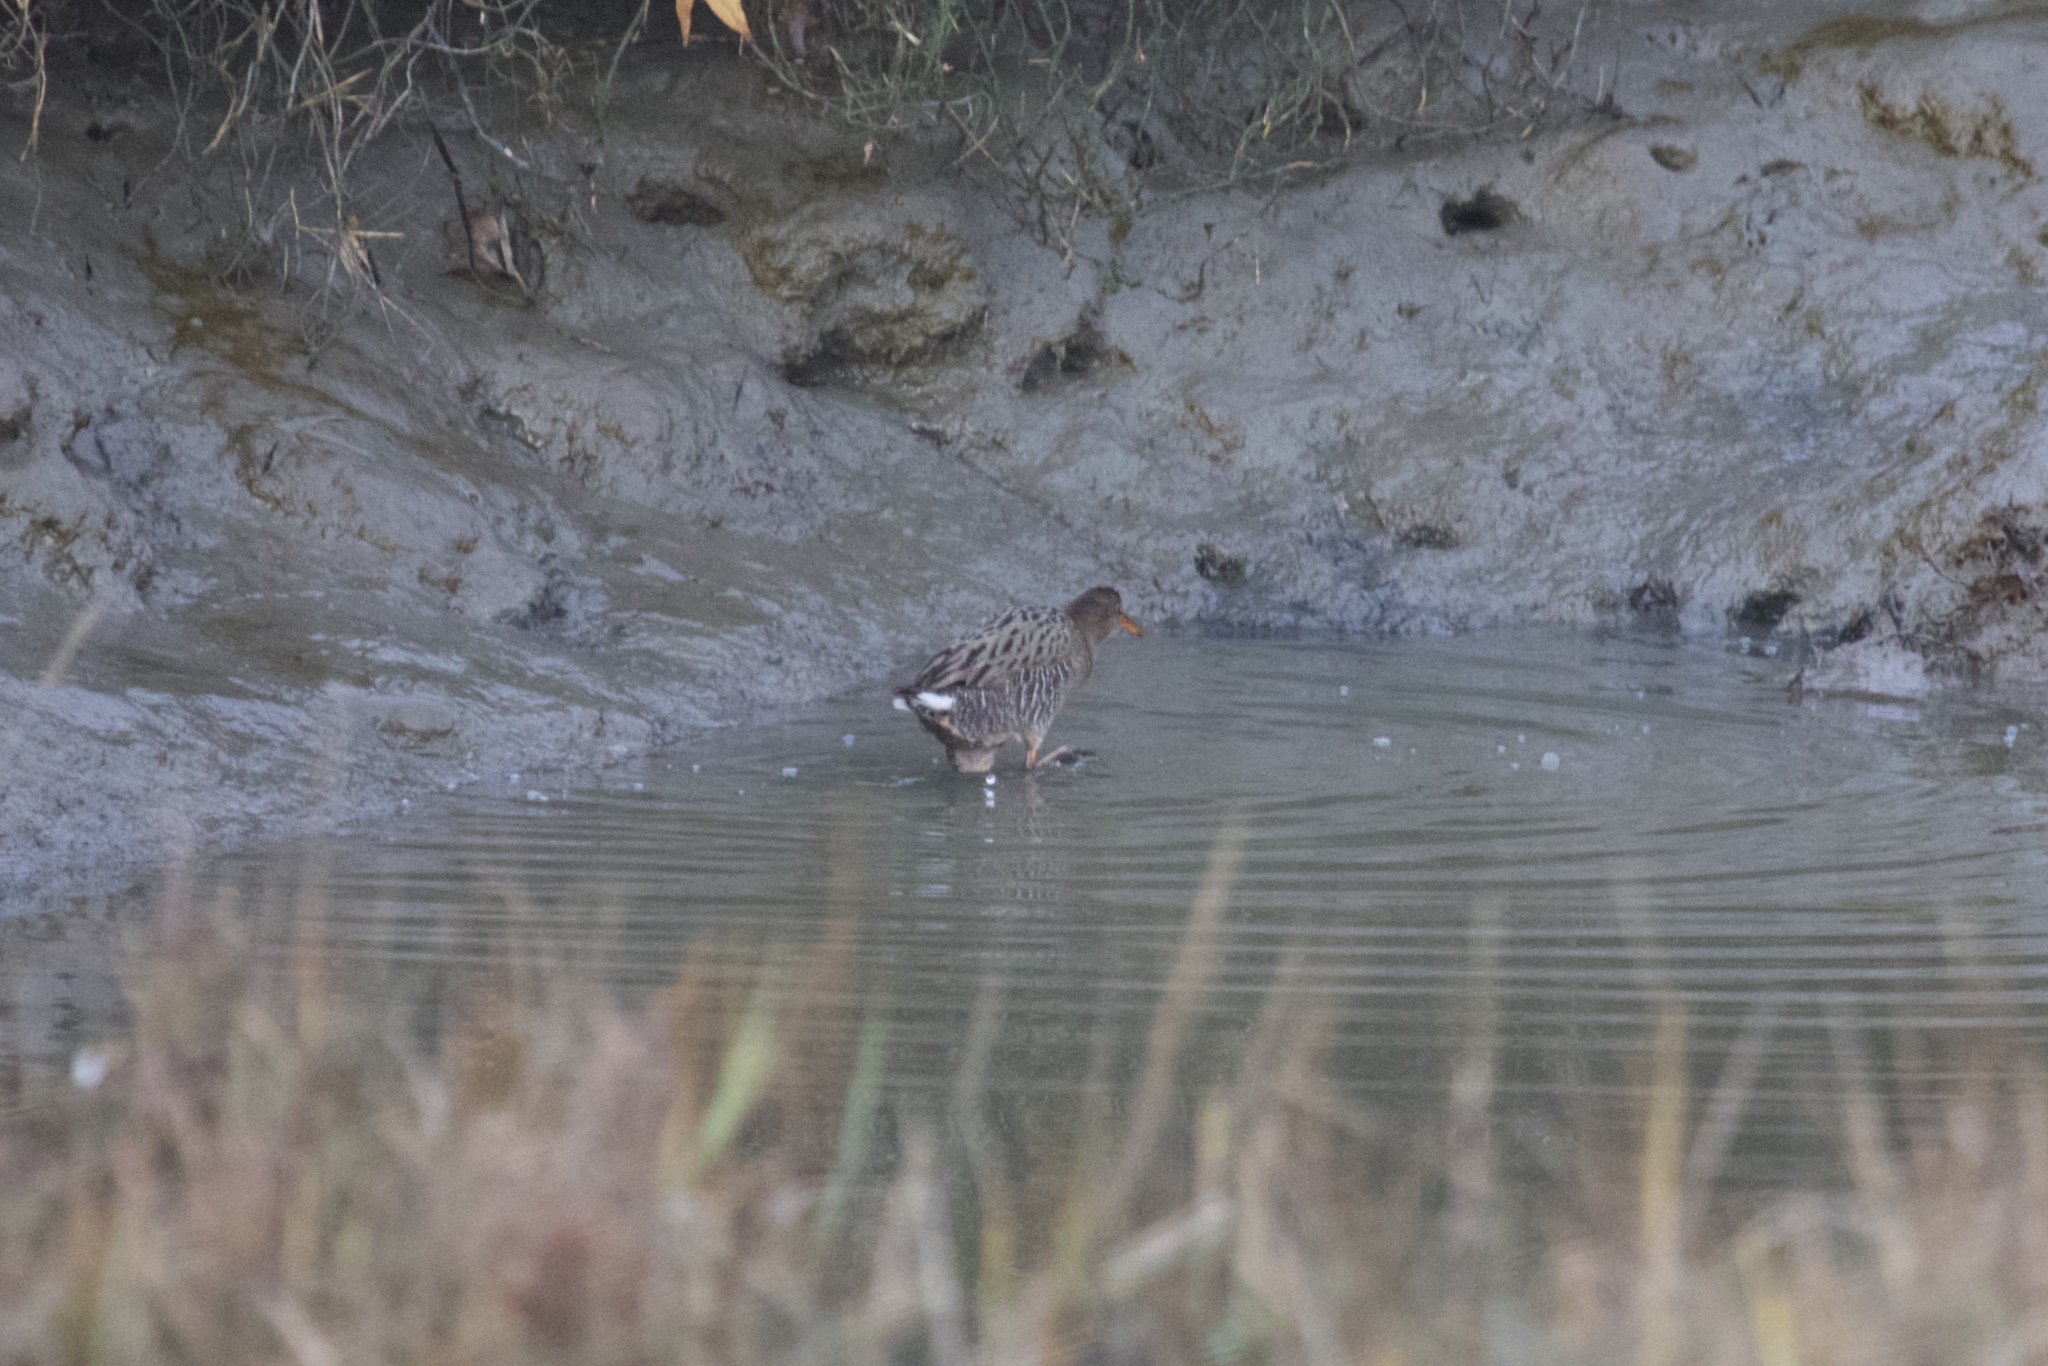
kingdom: Animalia
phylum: Chordata
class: Aves
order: Gruiformes
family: Rallidae
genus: Rallus
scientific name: Rallus obsoletus
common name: Ridgway's rail
